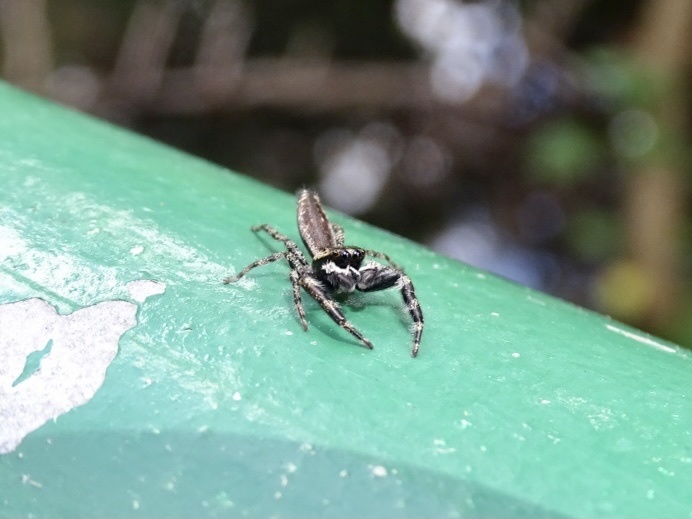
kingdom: Animalia
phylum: Arthropoda
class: Arachnida
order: Araneae
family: Salticidae
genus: Kelawakaju
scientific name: Kelawakaju frenata
